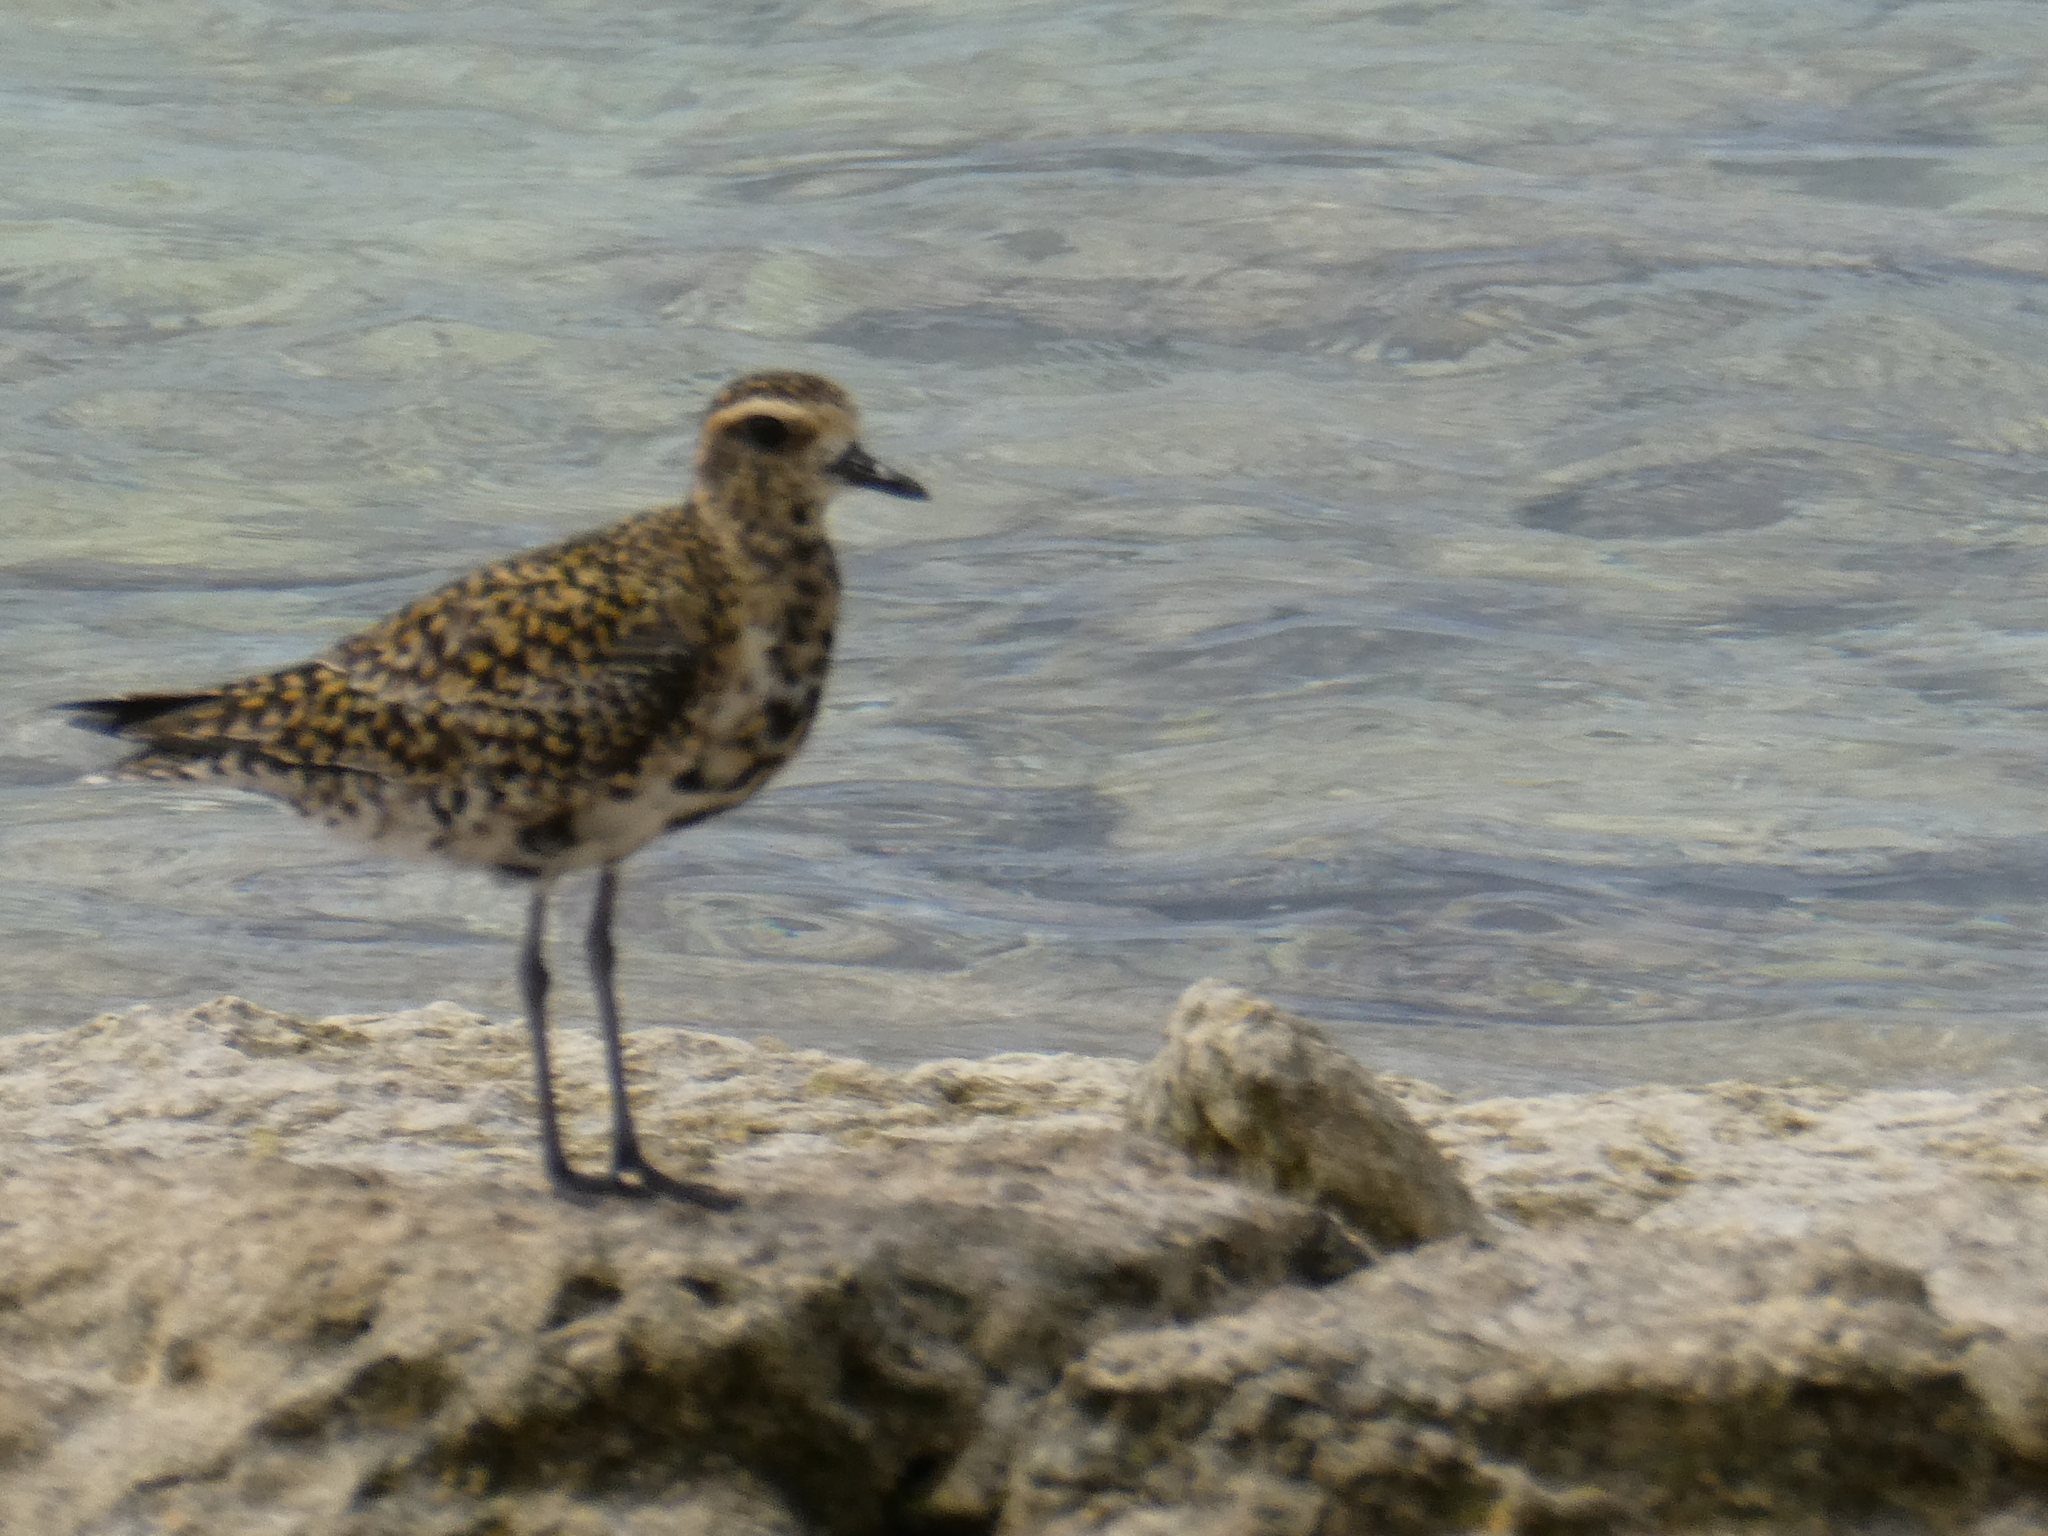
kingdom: Animalia
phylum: Chordata
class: Aves
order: Charadriiformes
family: Charadriidae
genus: Pluvialis
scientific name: Pluvialis fulva
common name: Pacific golden plover
